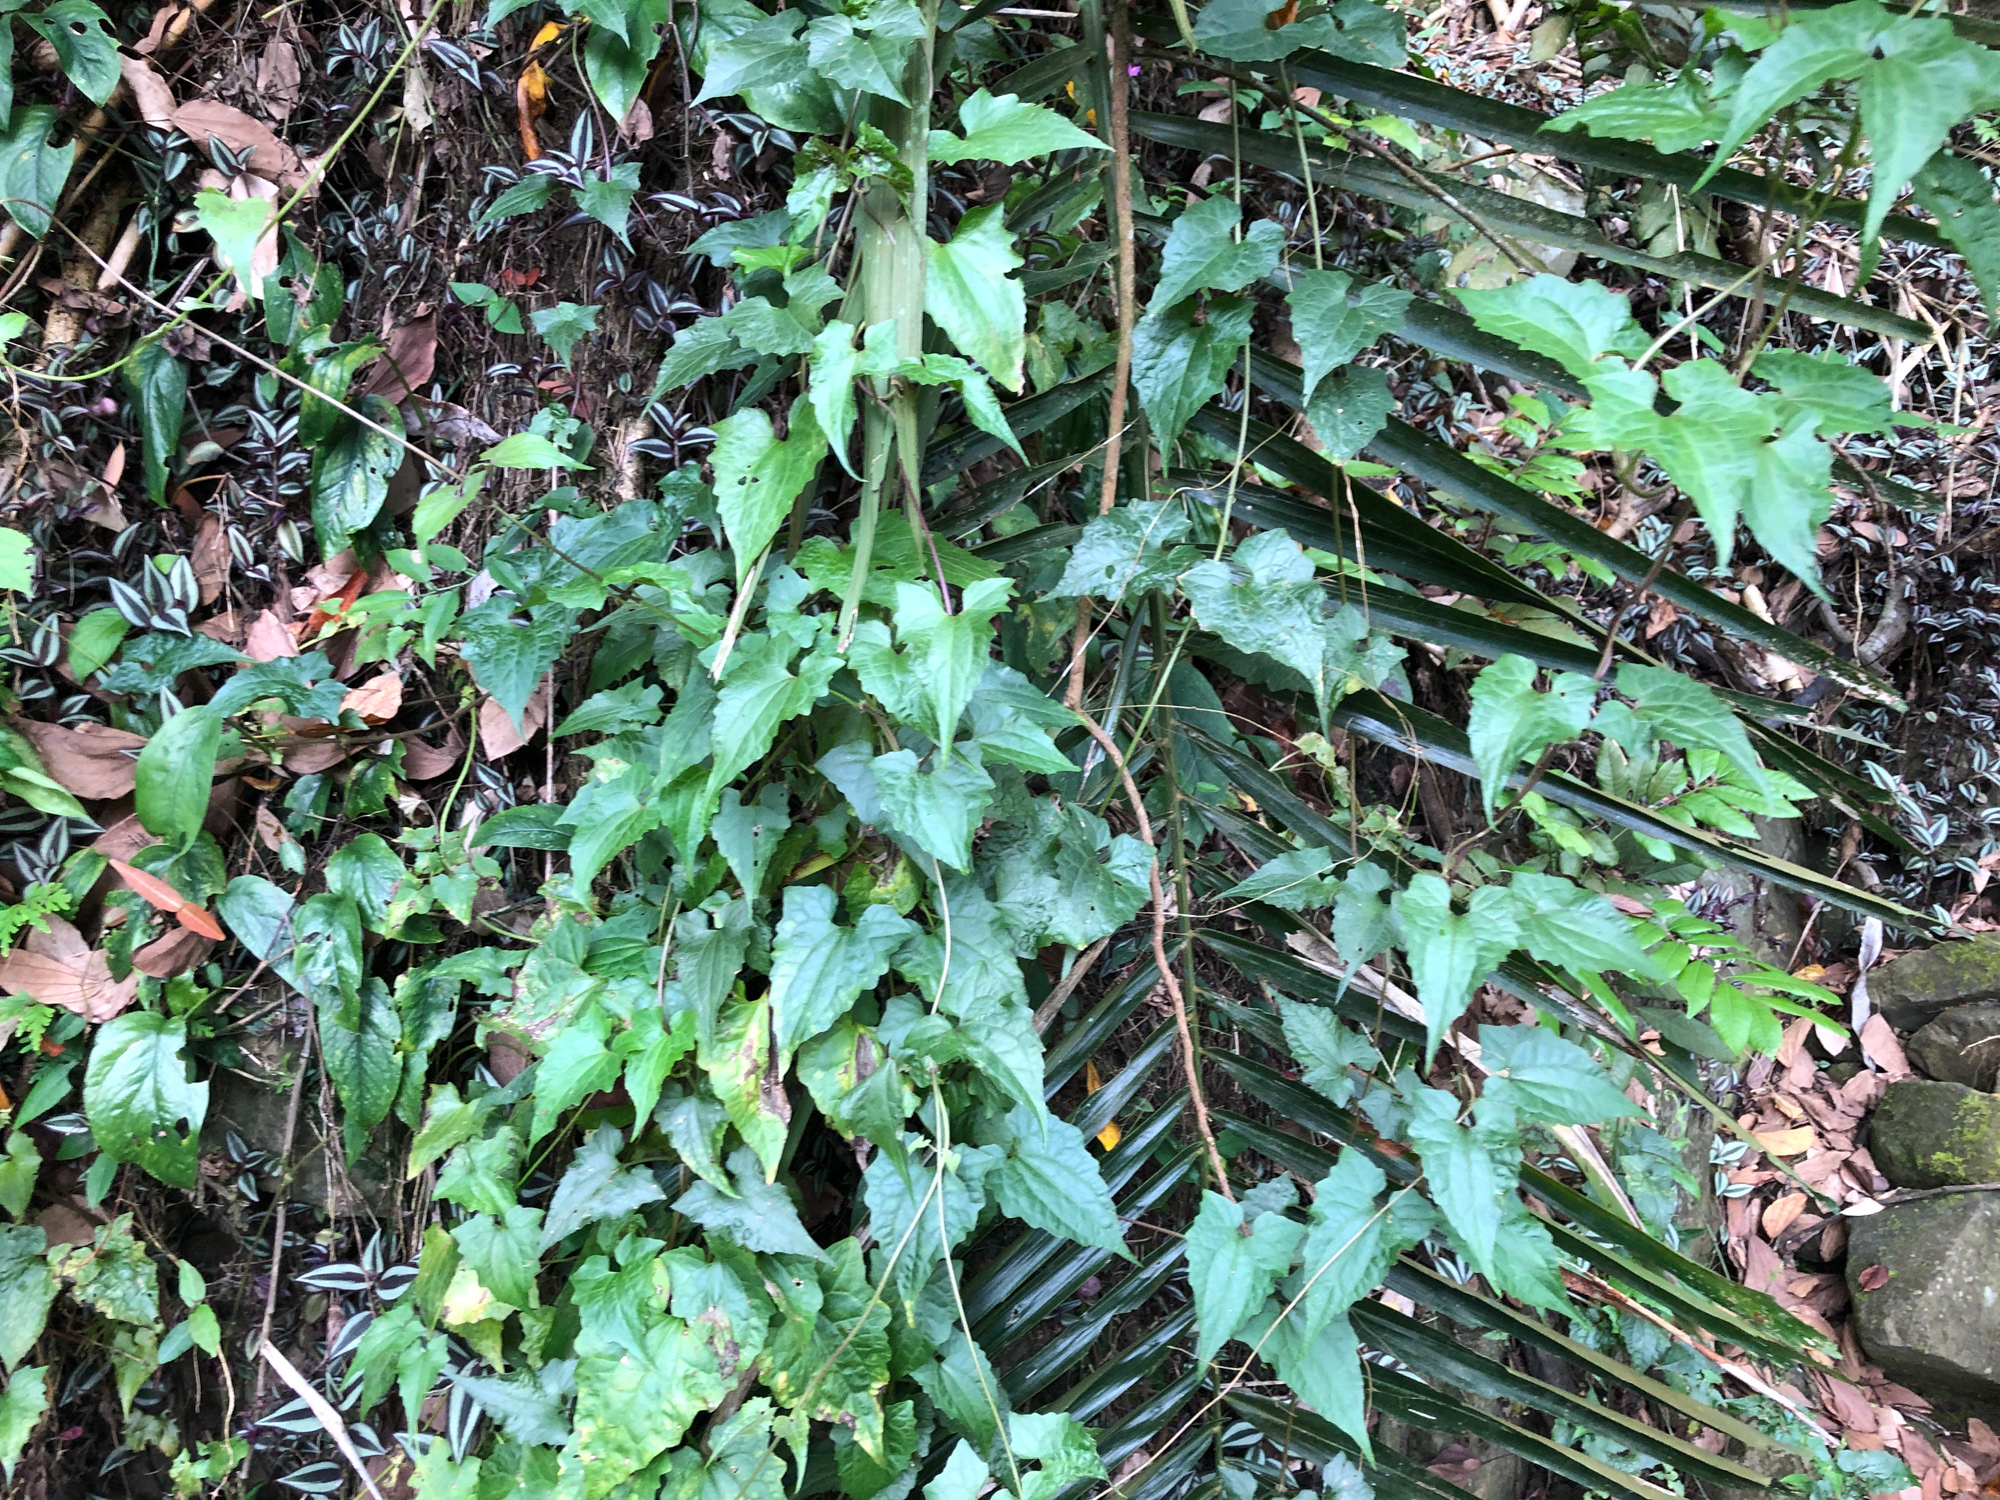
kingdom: Plantae
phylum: Tracheophyta
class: Magnoliopsida
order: Asterales
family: Asteraceae
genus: Mikania
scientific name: Mikania micrantha
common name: Mile-a-minute
